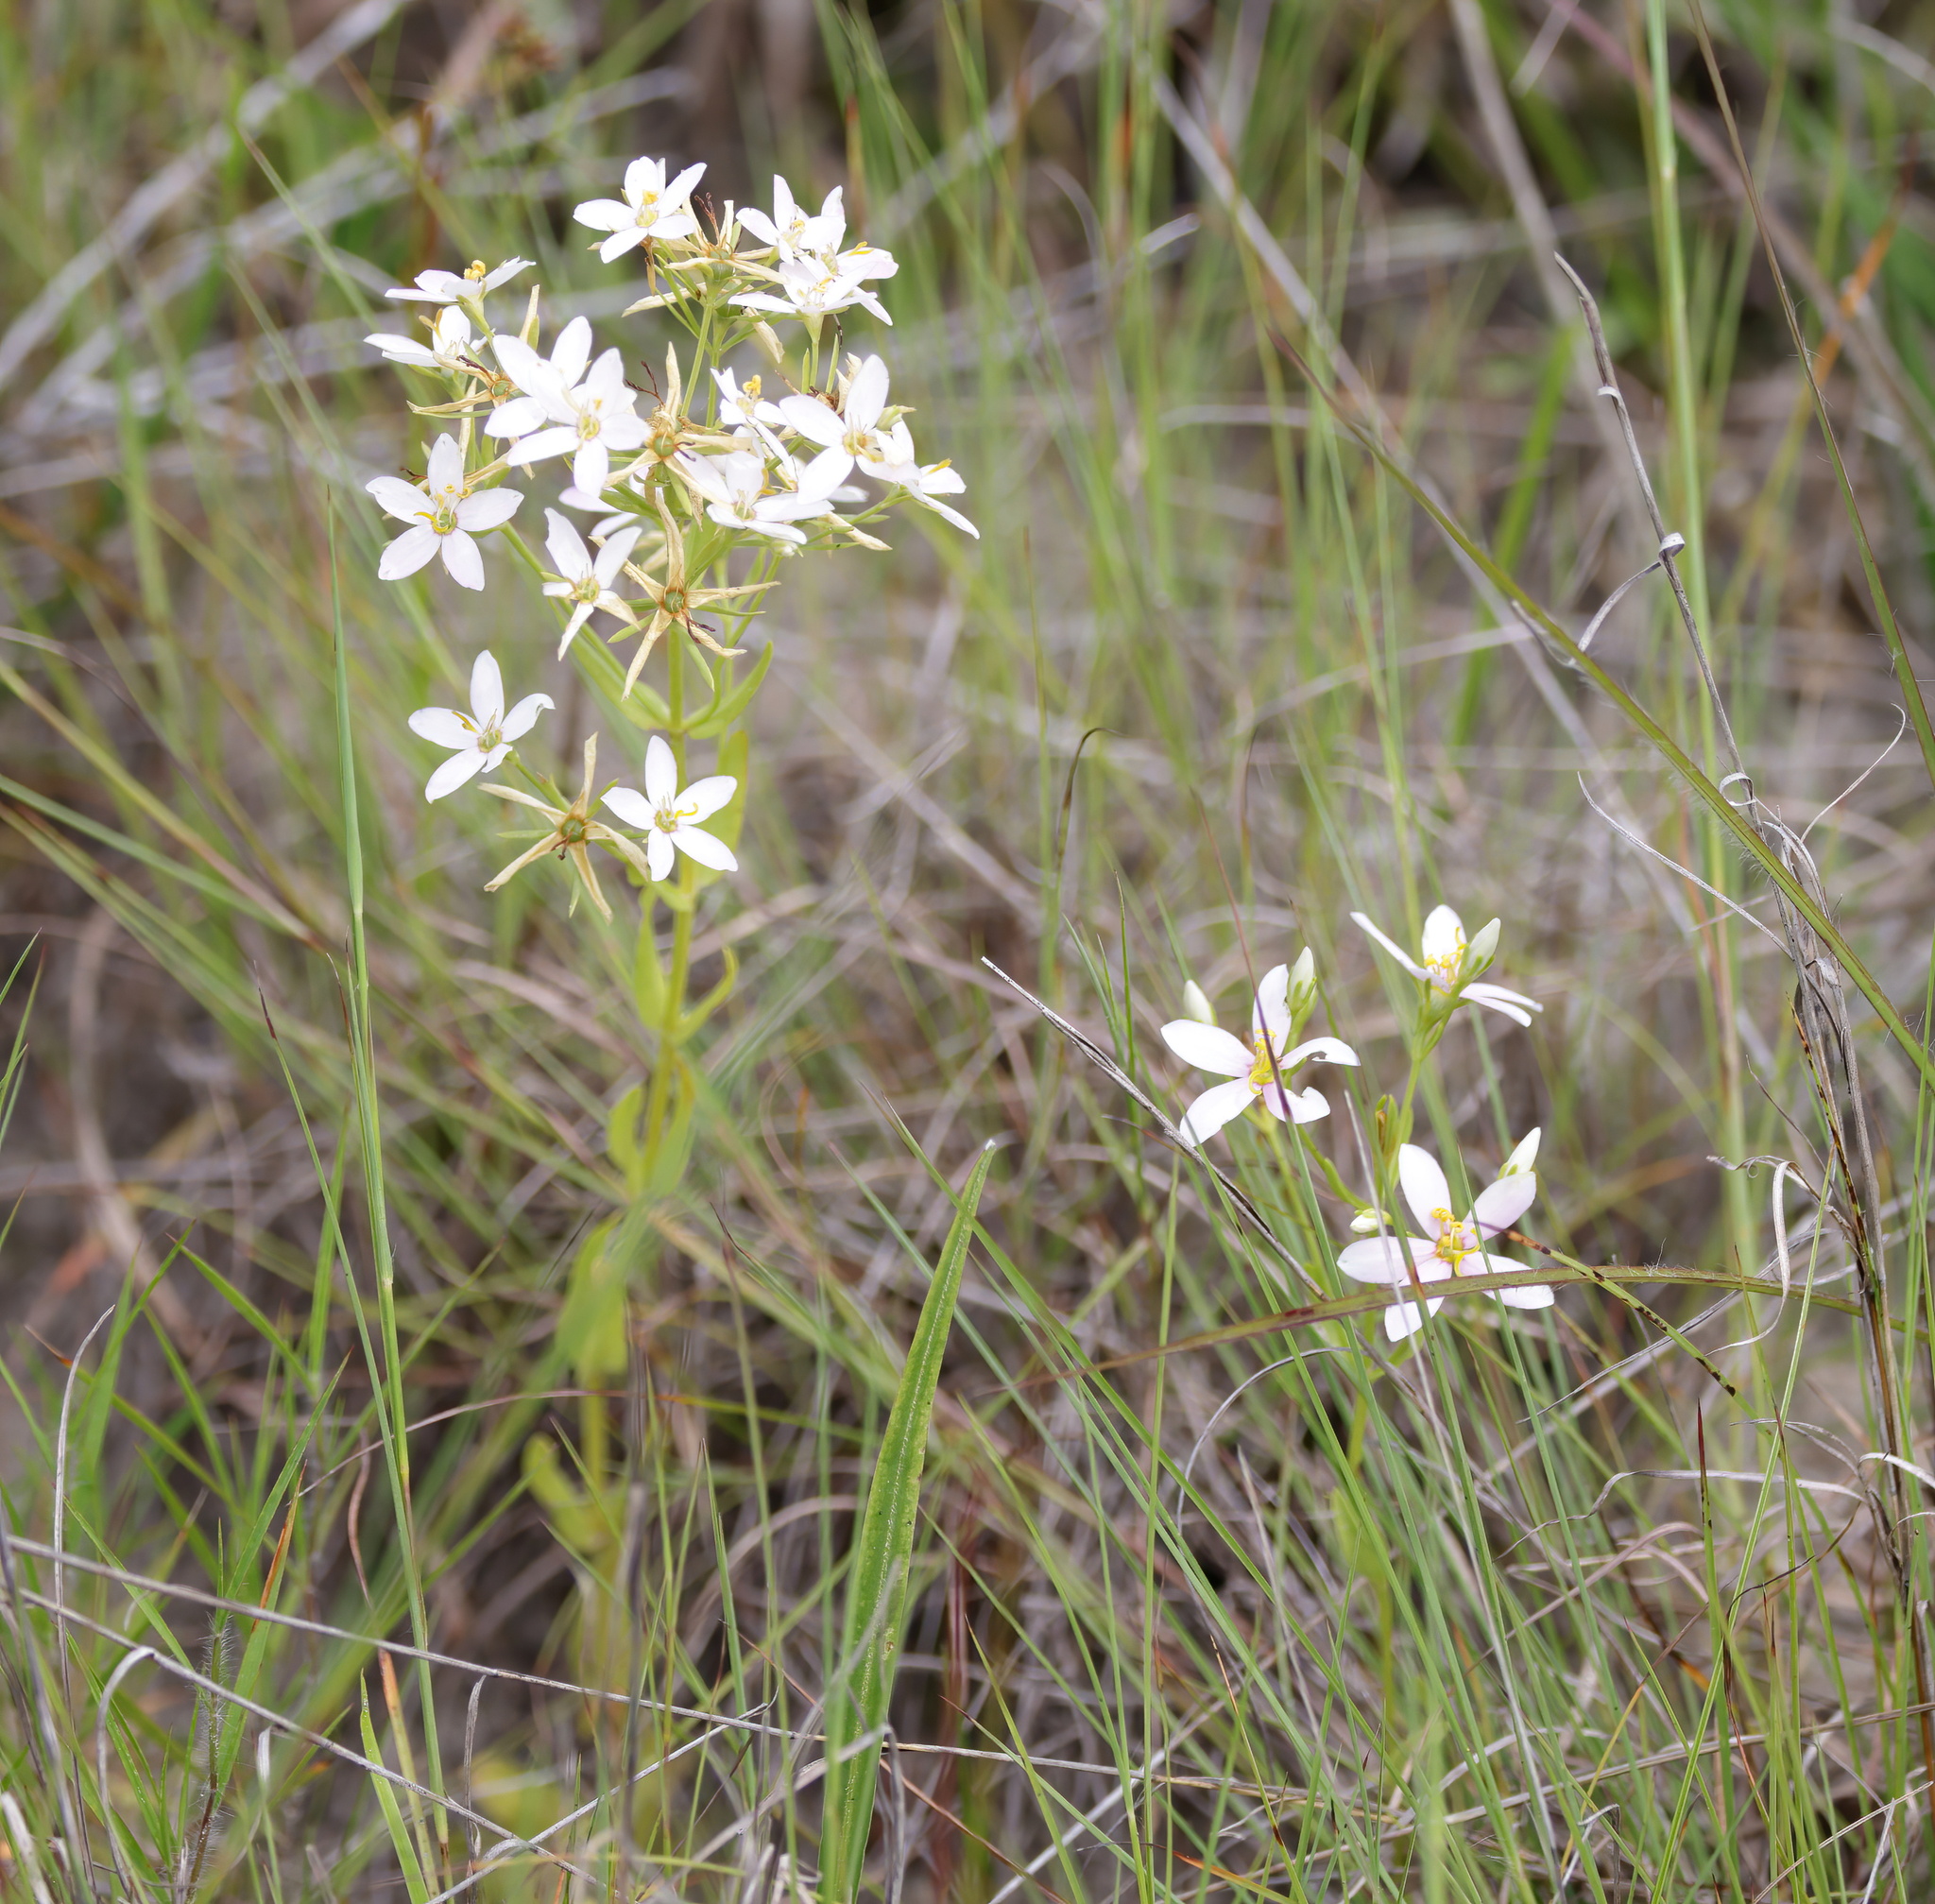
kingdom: Plantae
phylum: Tracheophyta
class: Magnoliopsida
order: Gentianales
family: Gentianaceae
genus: Sabatia
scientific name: Sabatia brachiata
